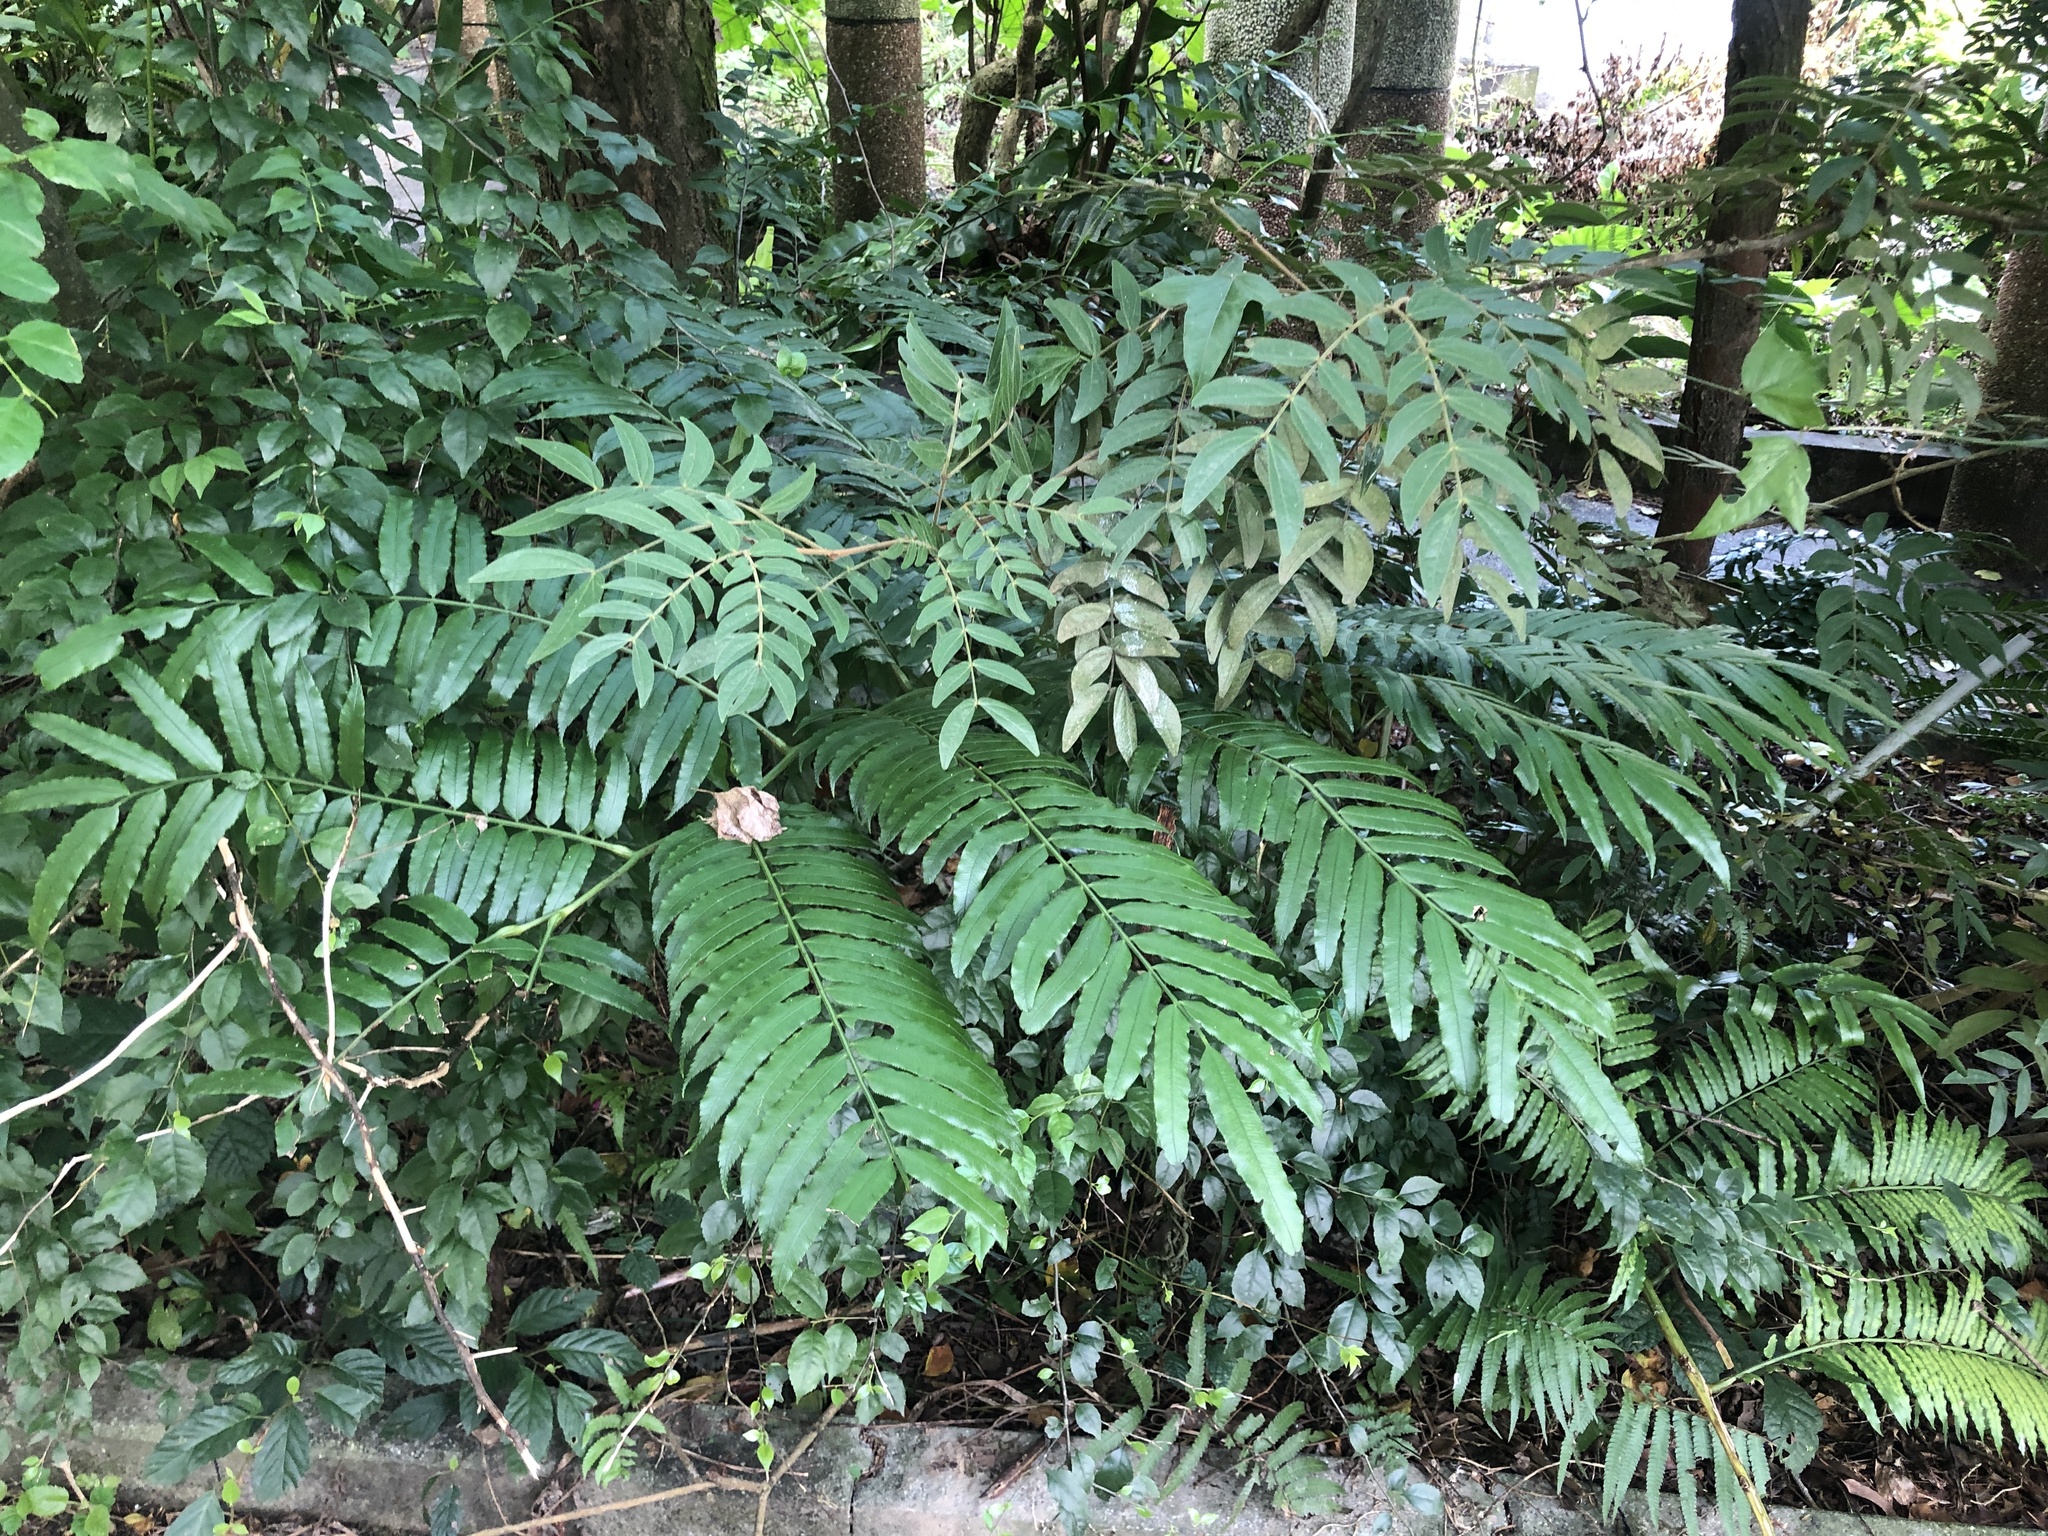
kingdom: Plantae
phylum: Tracheophyta
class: Polypodiopsida
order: Marattiales
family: Marattiaceae
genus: Angiopteris
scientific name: Angiopteris lygodiifolia
